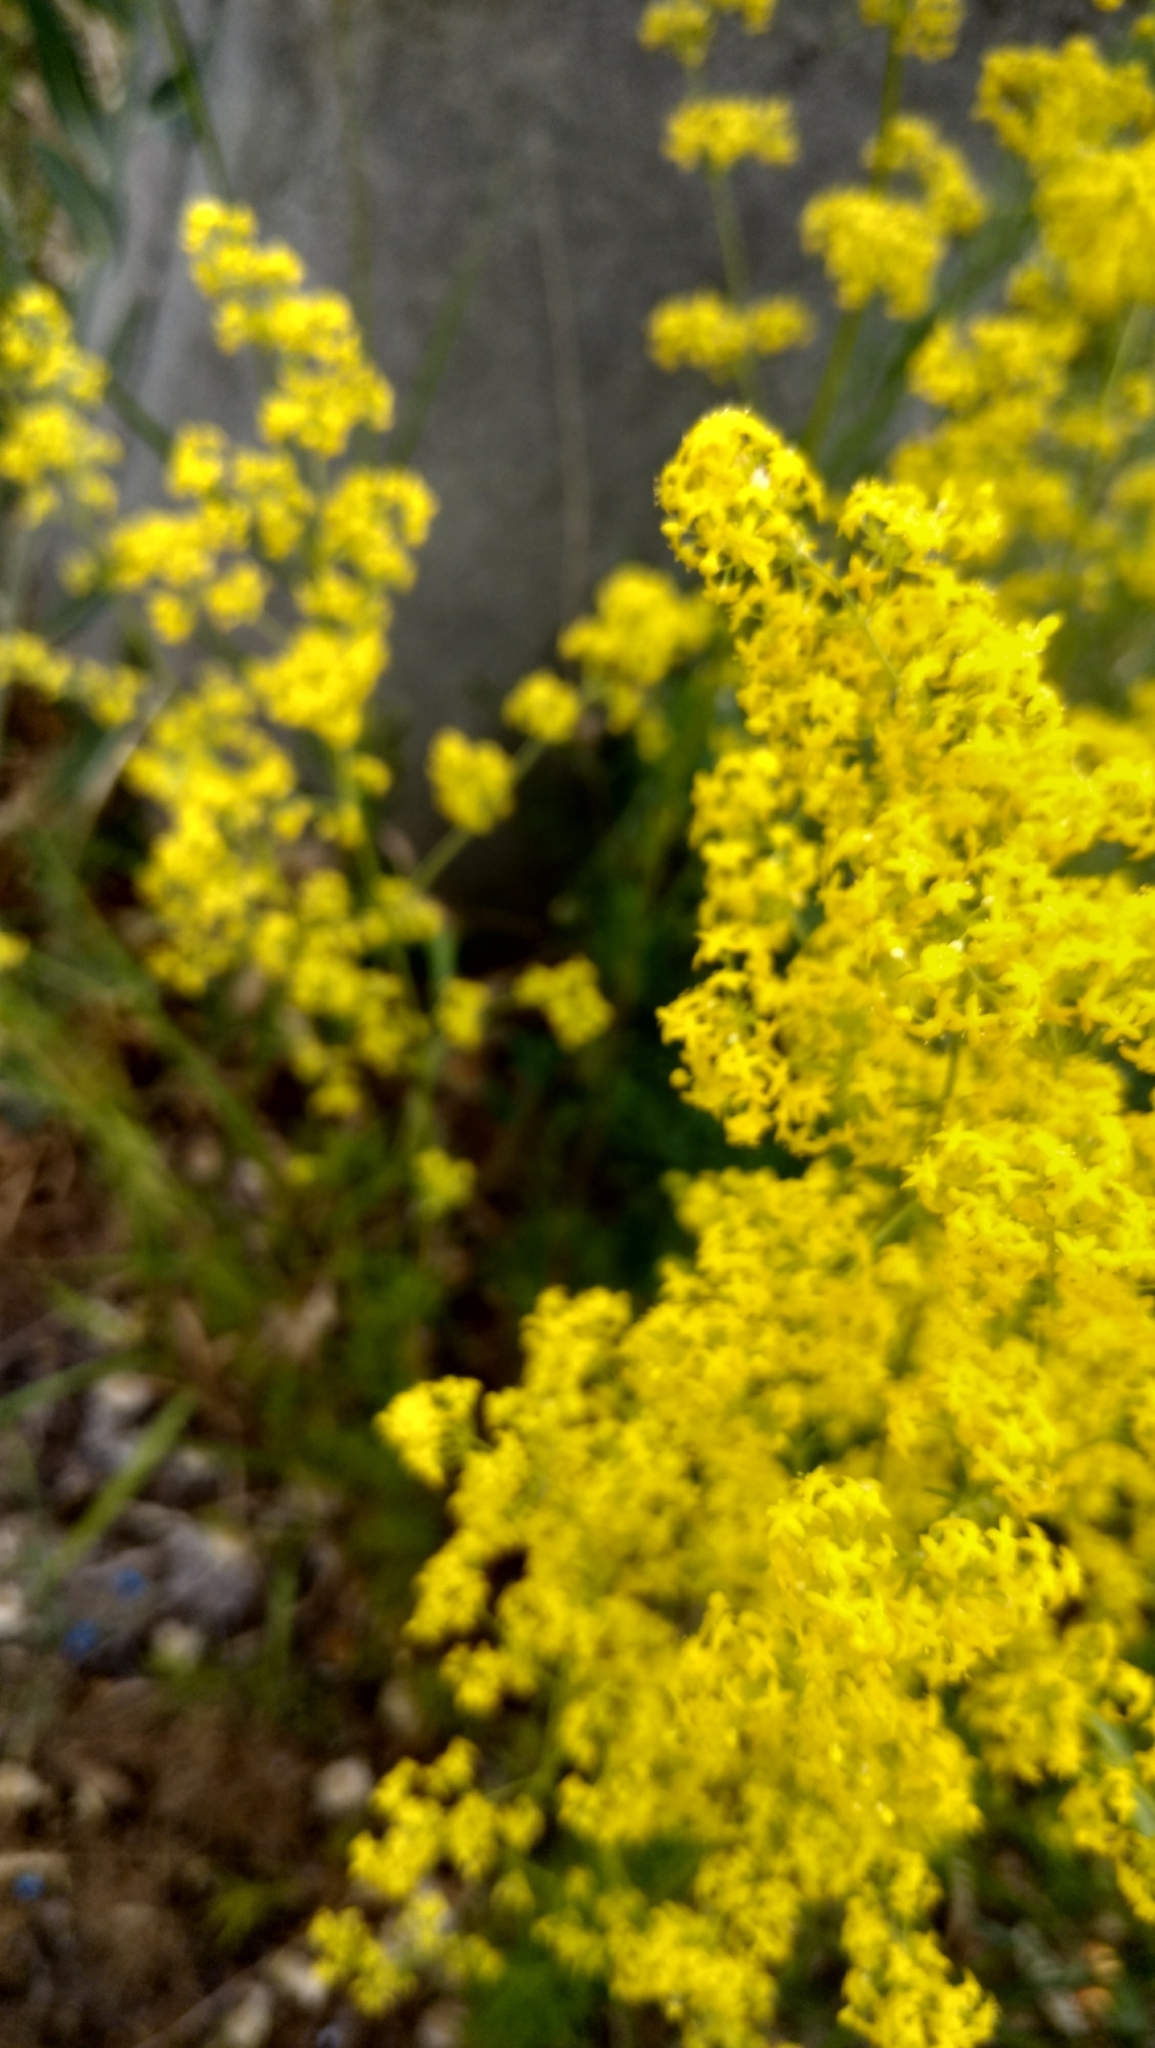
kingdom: Plantae
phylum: Tracheophyta
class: Magnoliopsida
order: Gentianales
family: Rubiaceae
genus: Galium
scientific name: Galium verum
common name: Lady's bedstraw
